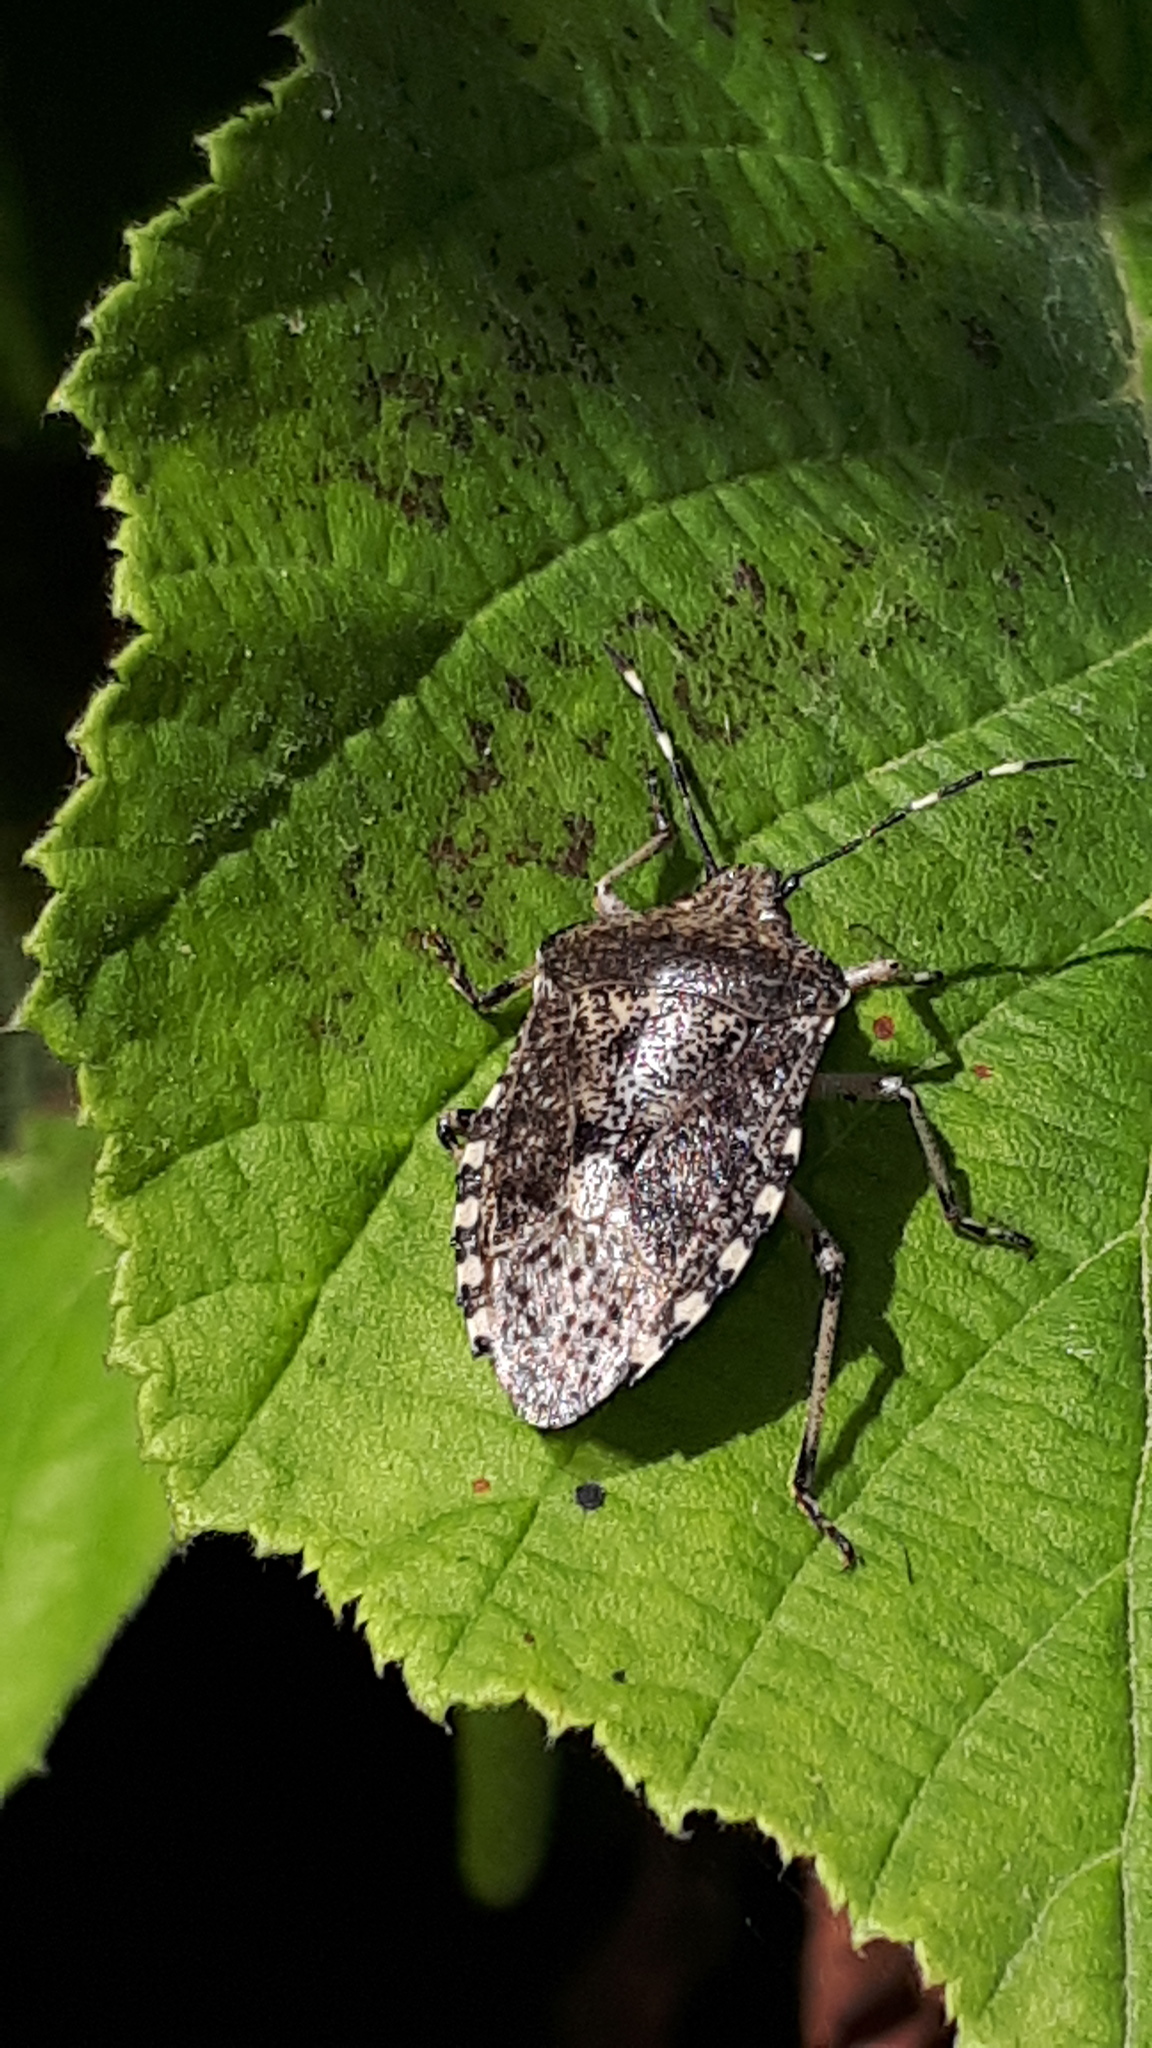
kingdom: Animalia
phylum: Arthropoda
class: Insecta
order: Hemiptera
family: Pentatomidae
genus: Rhaphigaster
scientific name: Rhaphigaster nebulosa
